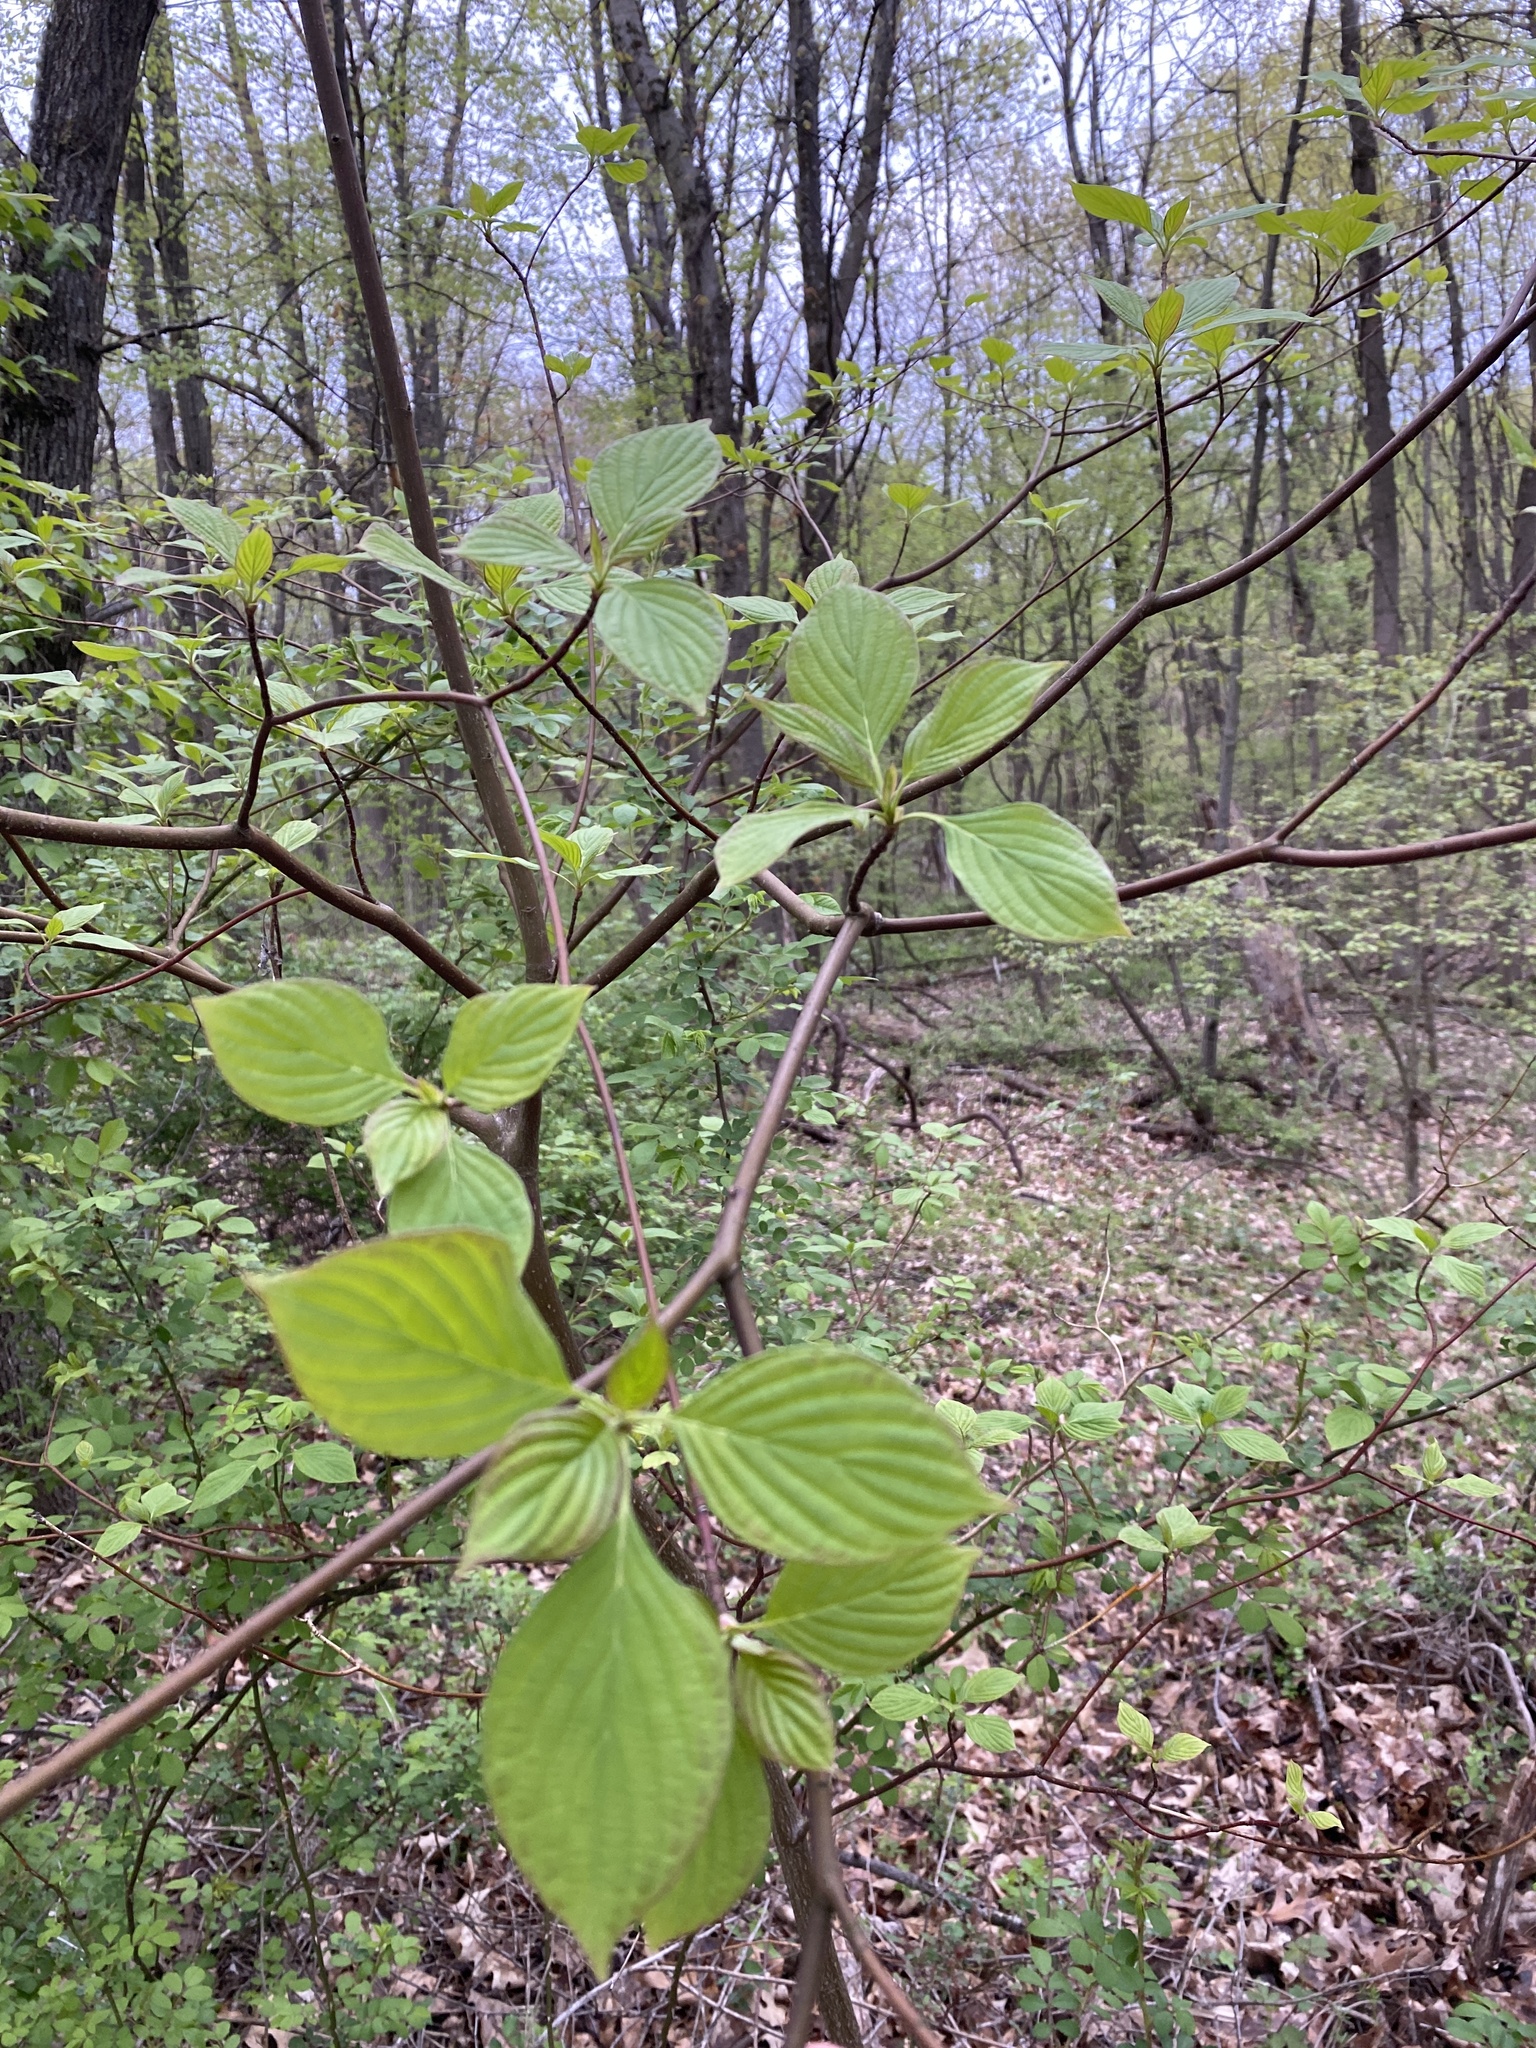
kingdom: Plantae
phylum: Tracheophyta
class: Magnoliopsida
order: Cornales
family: Cornaceae
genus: Cornus
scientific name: Cornus alternifolia
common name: Pagoda dogwood
